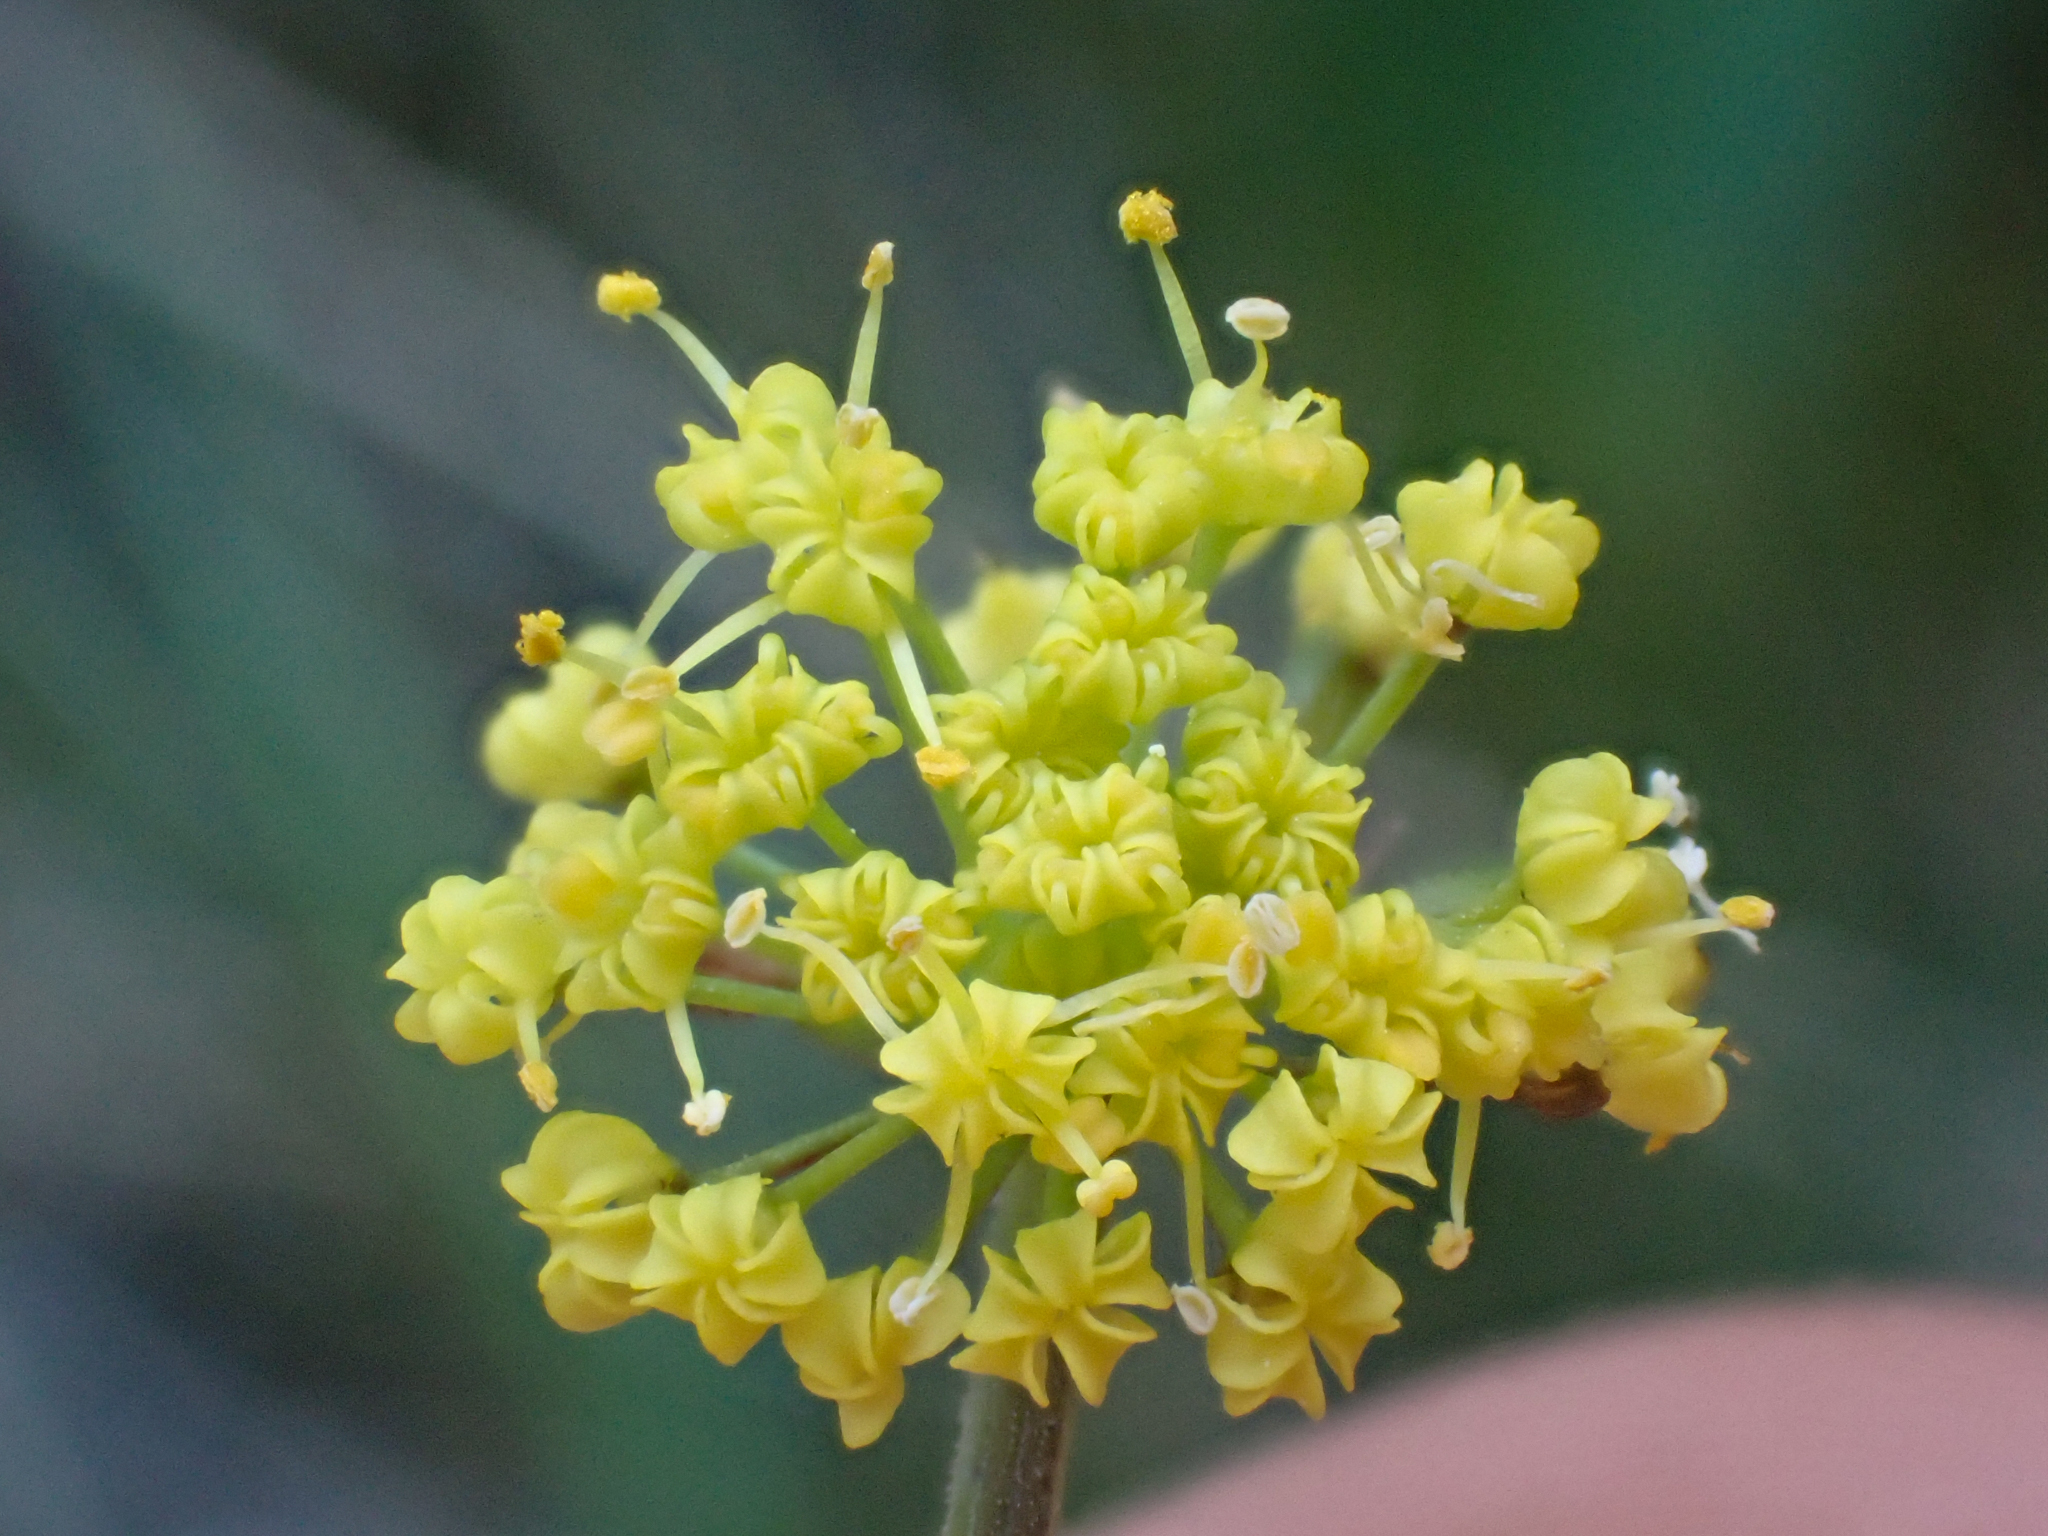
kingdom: Plantae
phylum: Tracheophyta
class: Magnoliopsida
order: Apiales
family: Apiaceae
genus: Lomatium
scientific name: Lomatium triternatum
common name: Ternate lomatium
